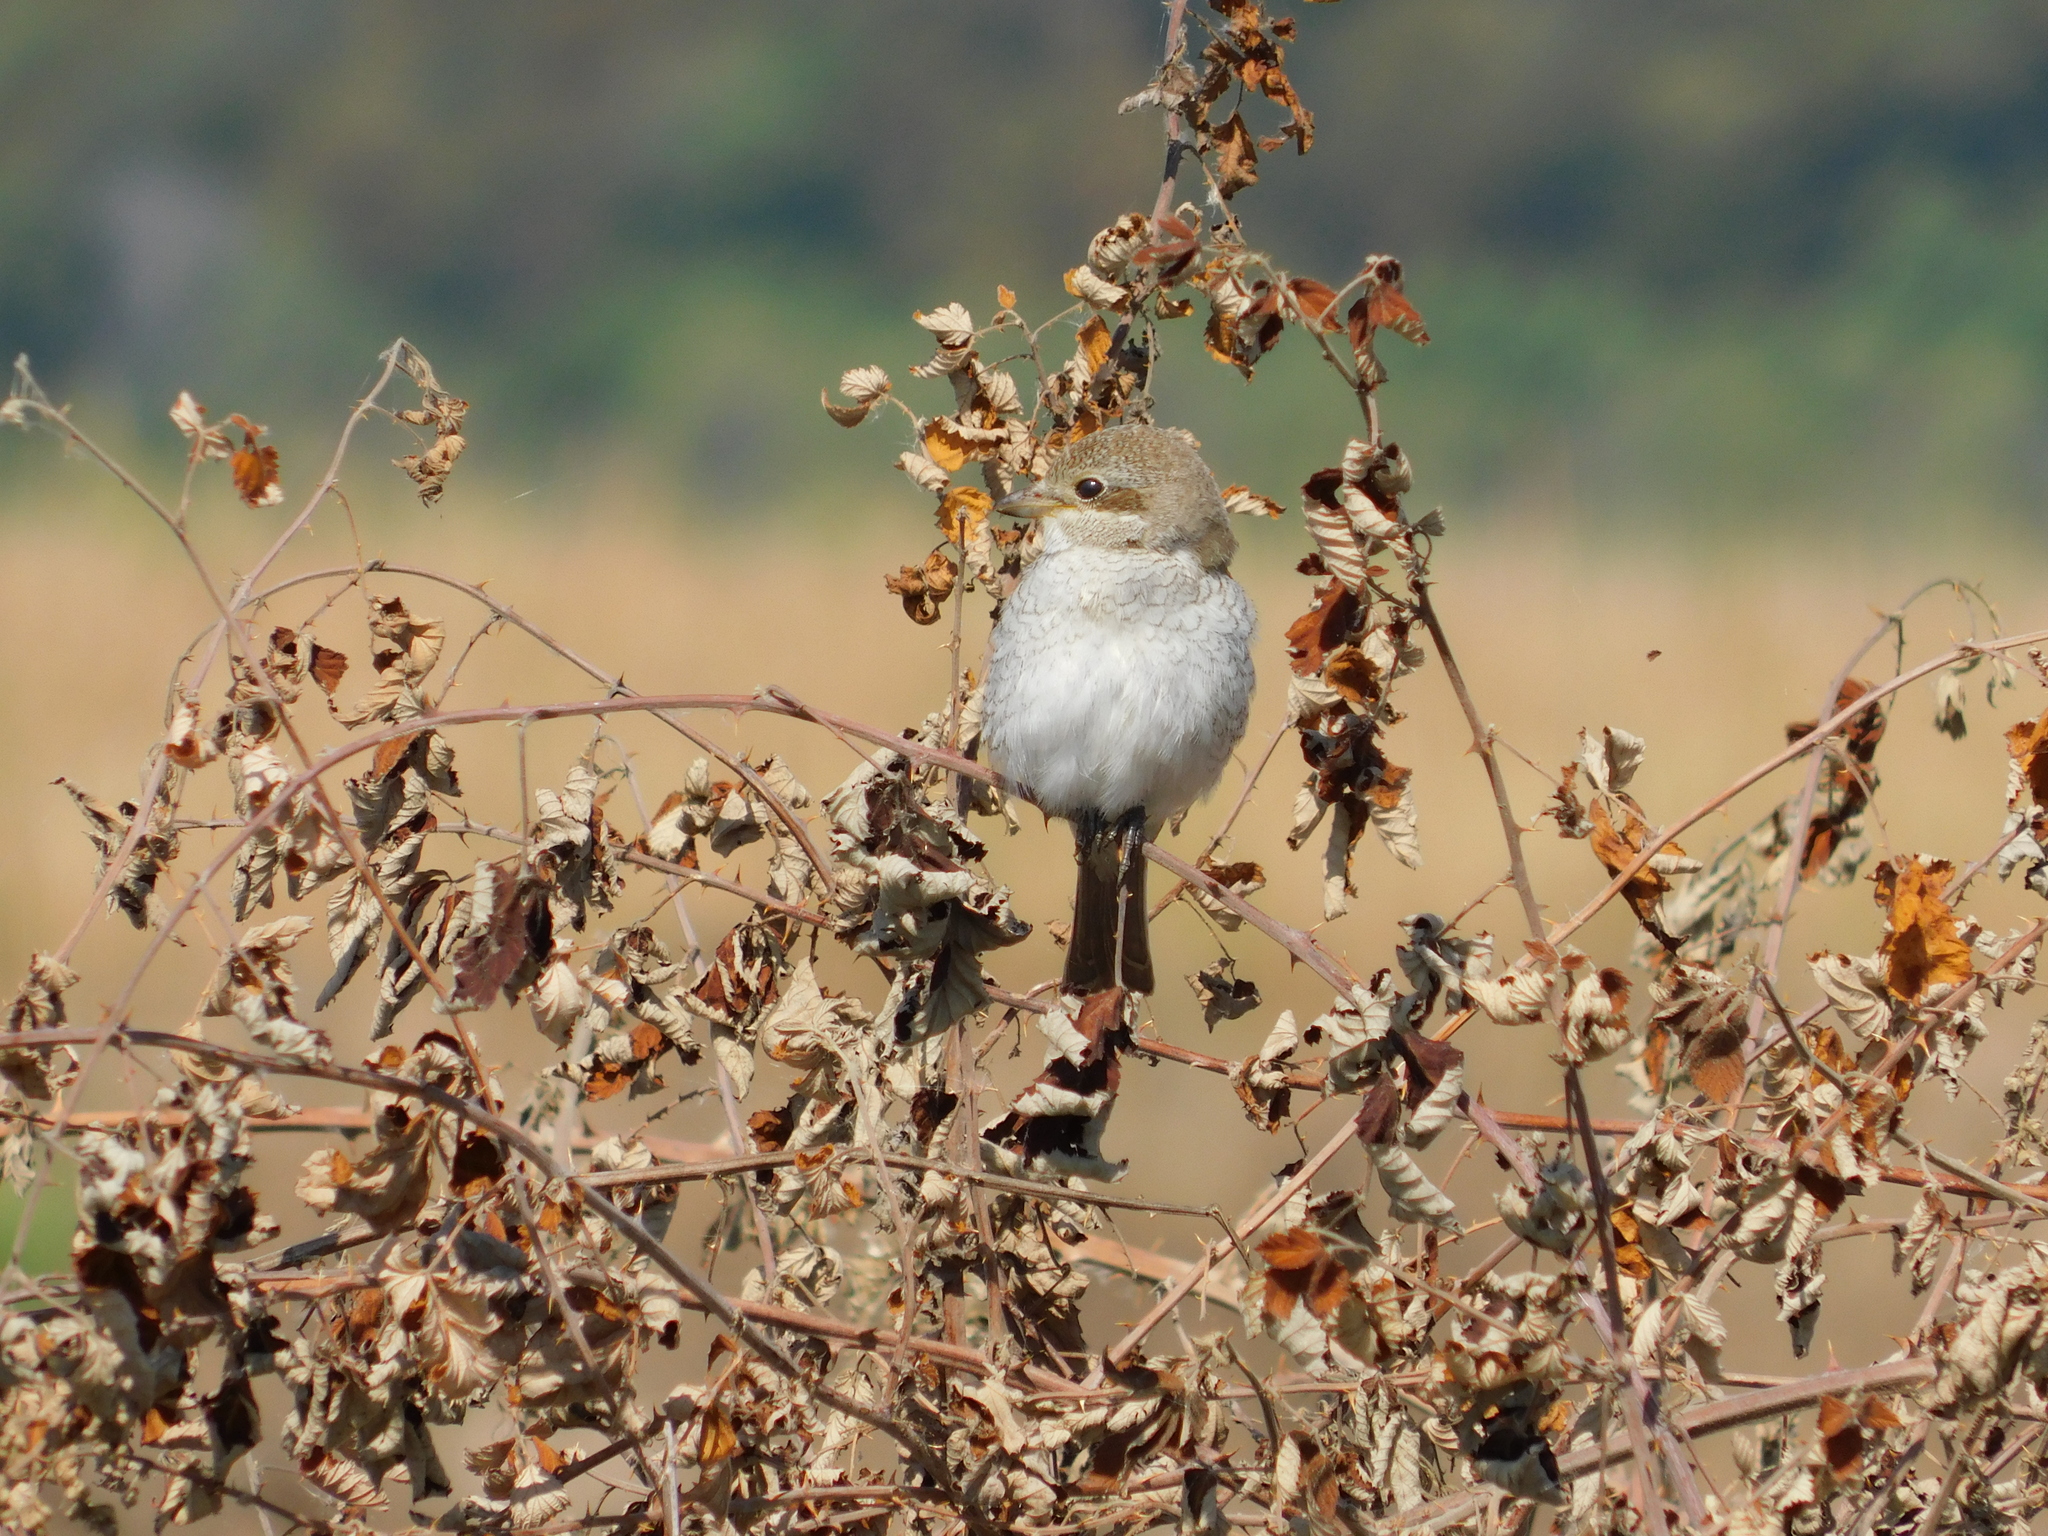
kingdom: Animalia
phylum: Chordata
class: Aves
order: Passeriformes
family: Laniidae
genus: Lanius
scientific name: Lanius collurio
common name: Red-backed shrike
